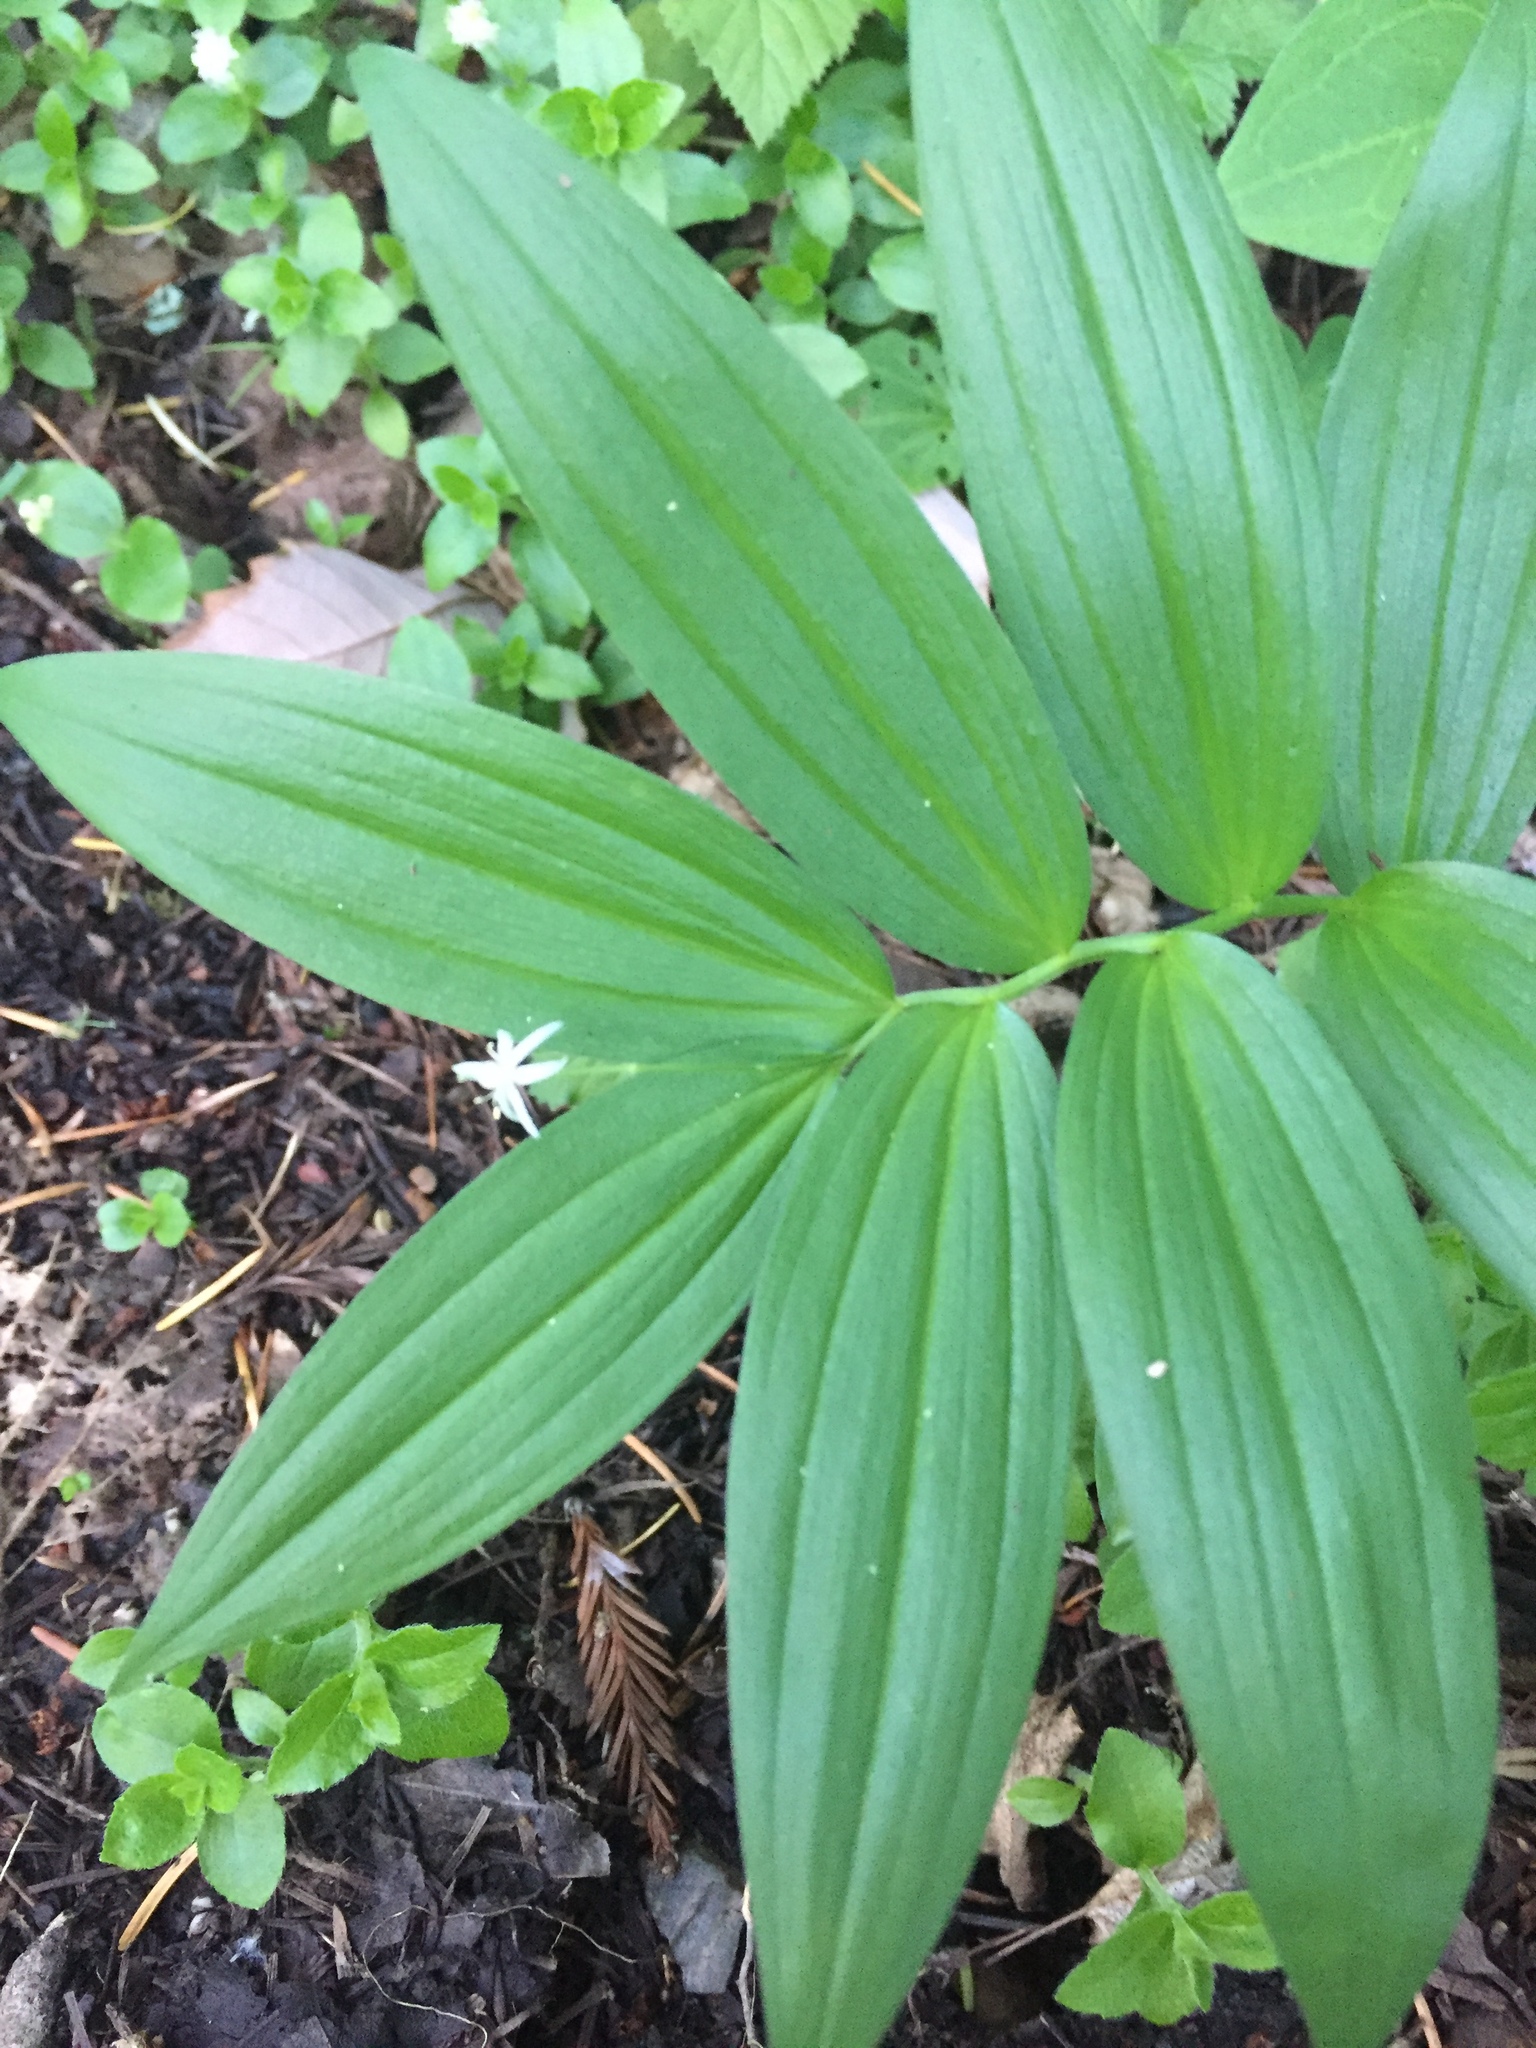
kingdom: Plantae
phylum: Tracheophyta
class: Liliopsida
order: Asparagales
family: Asparagaceae
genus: Maianthemum
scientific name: Maianthemum stellatum
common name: Little false solomon's seal
